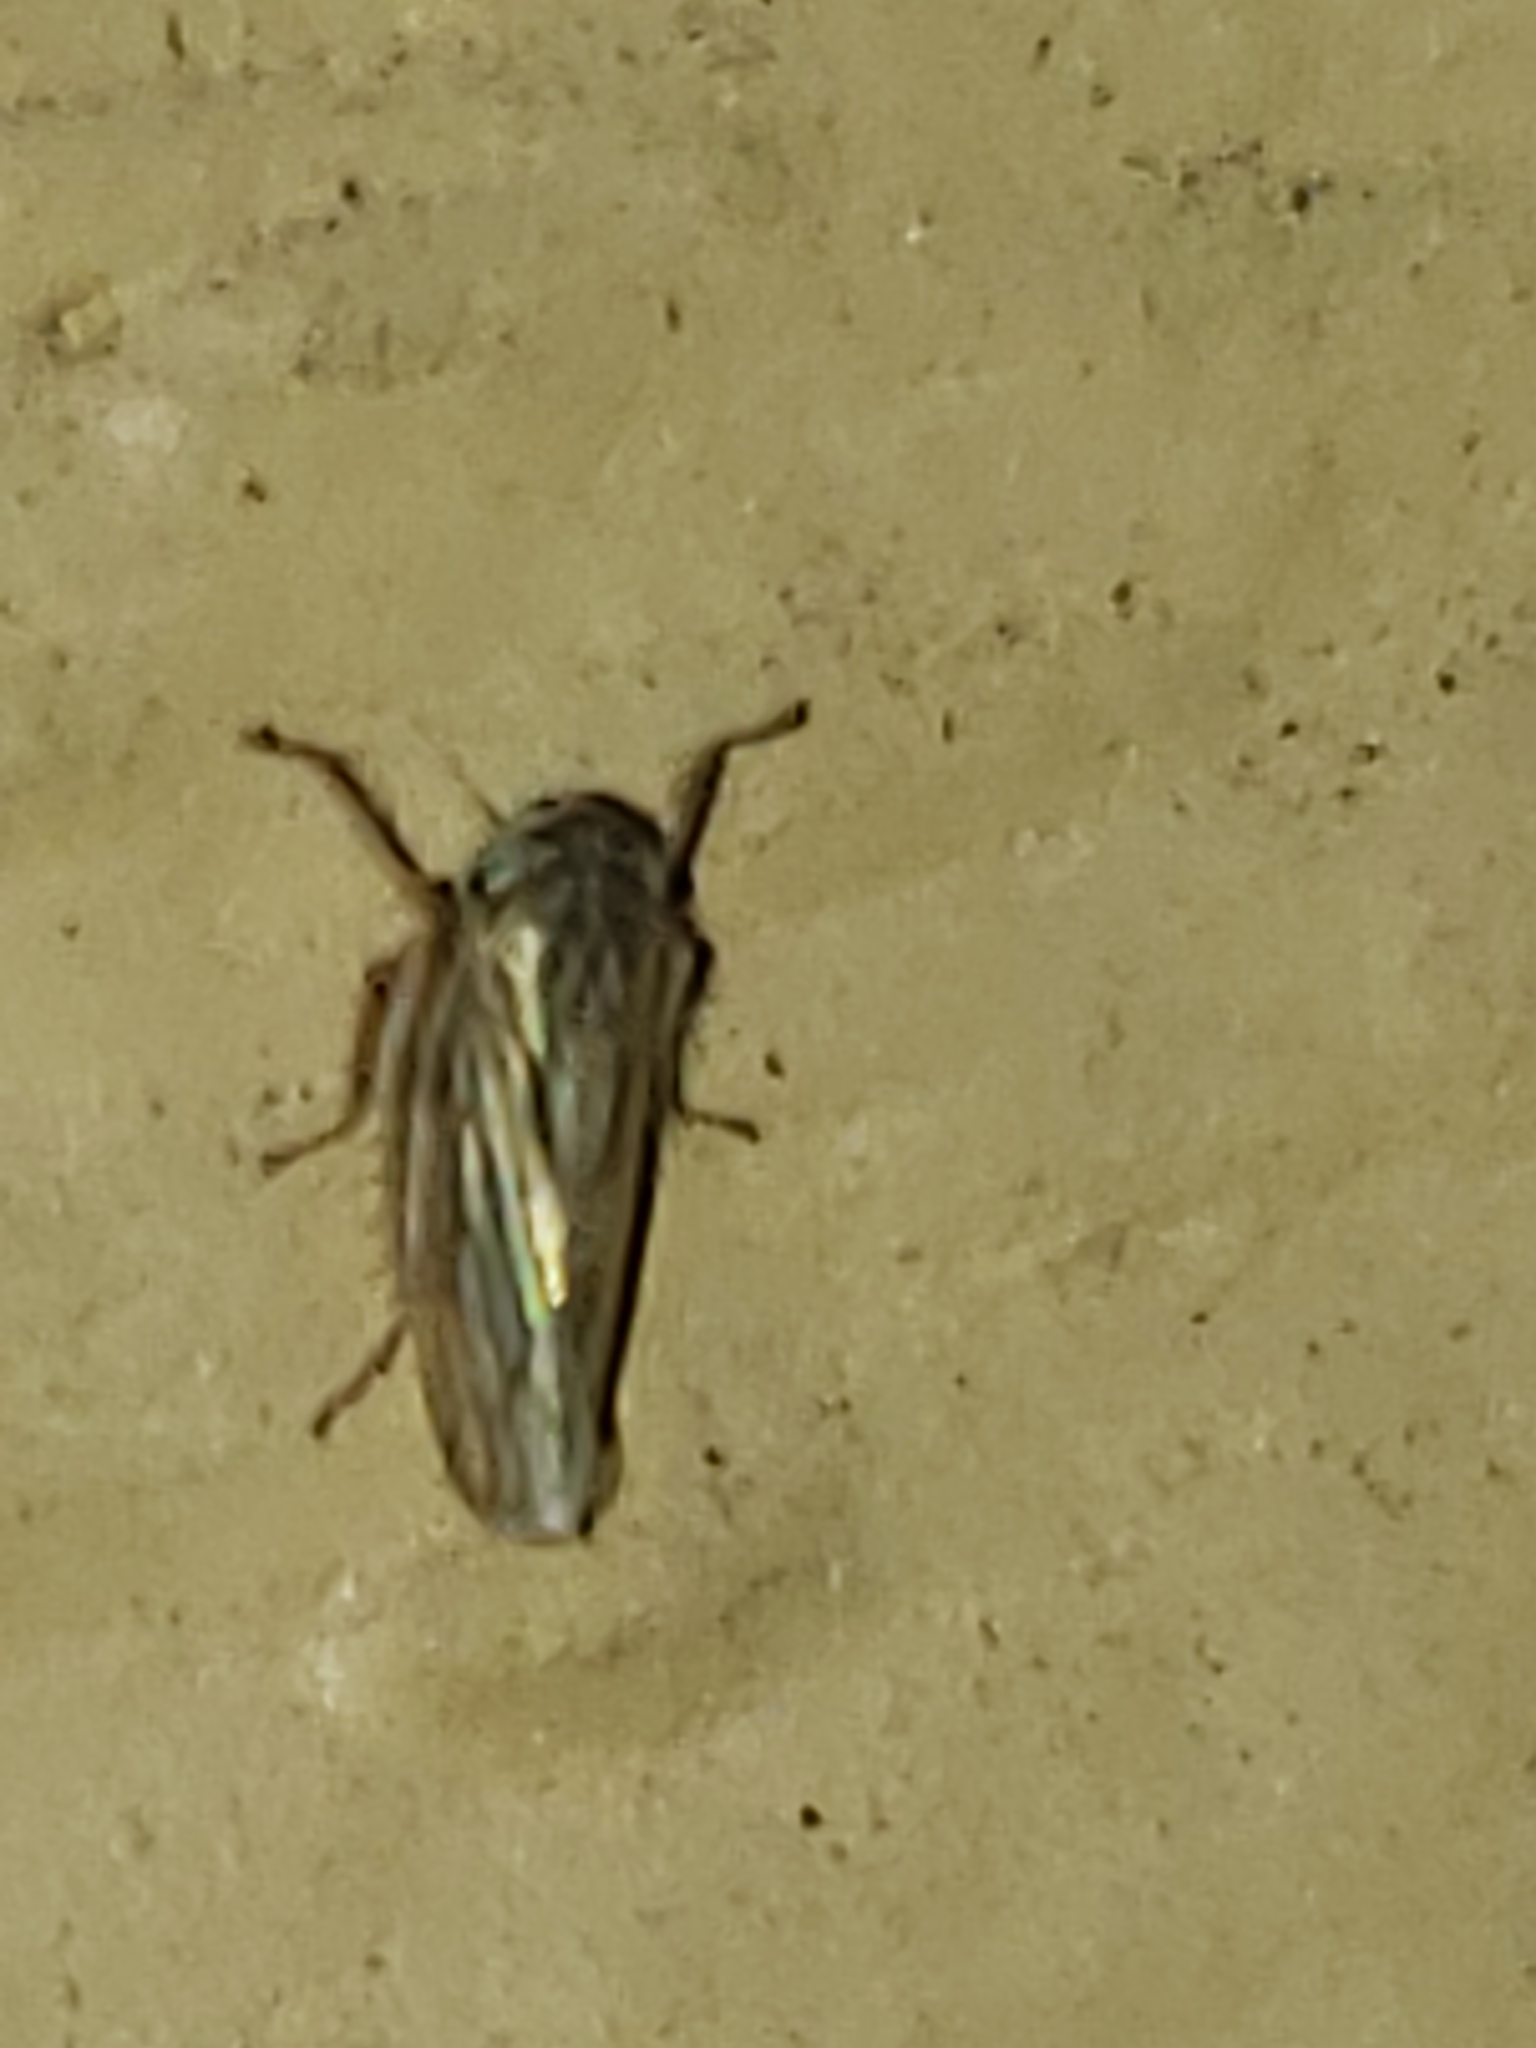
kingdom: Animalia
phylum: Arthropoda
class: Insecta
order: Hemiptera
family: Cicadellidae
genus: Exitianus
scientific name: Exitianus exitiosus
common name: Gray lawn leafhopper
